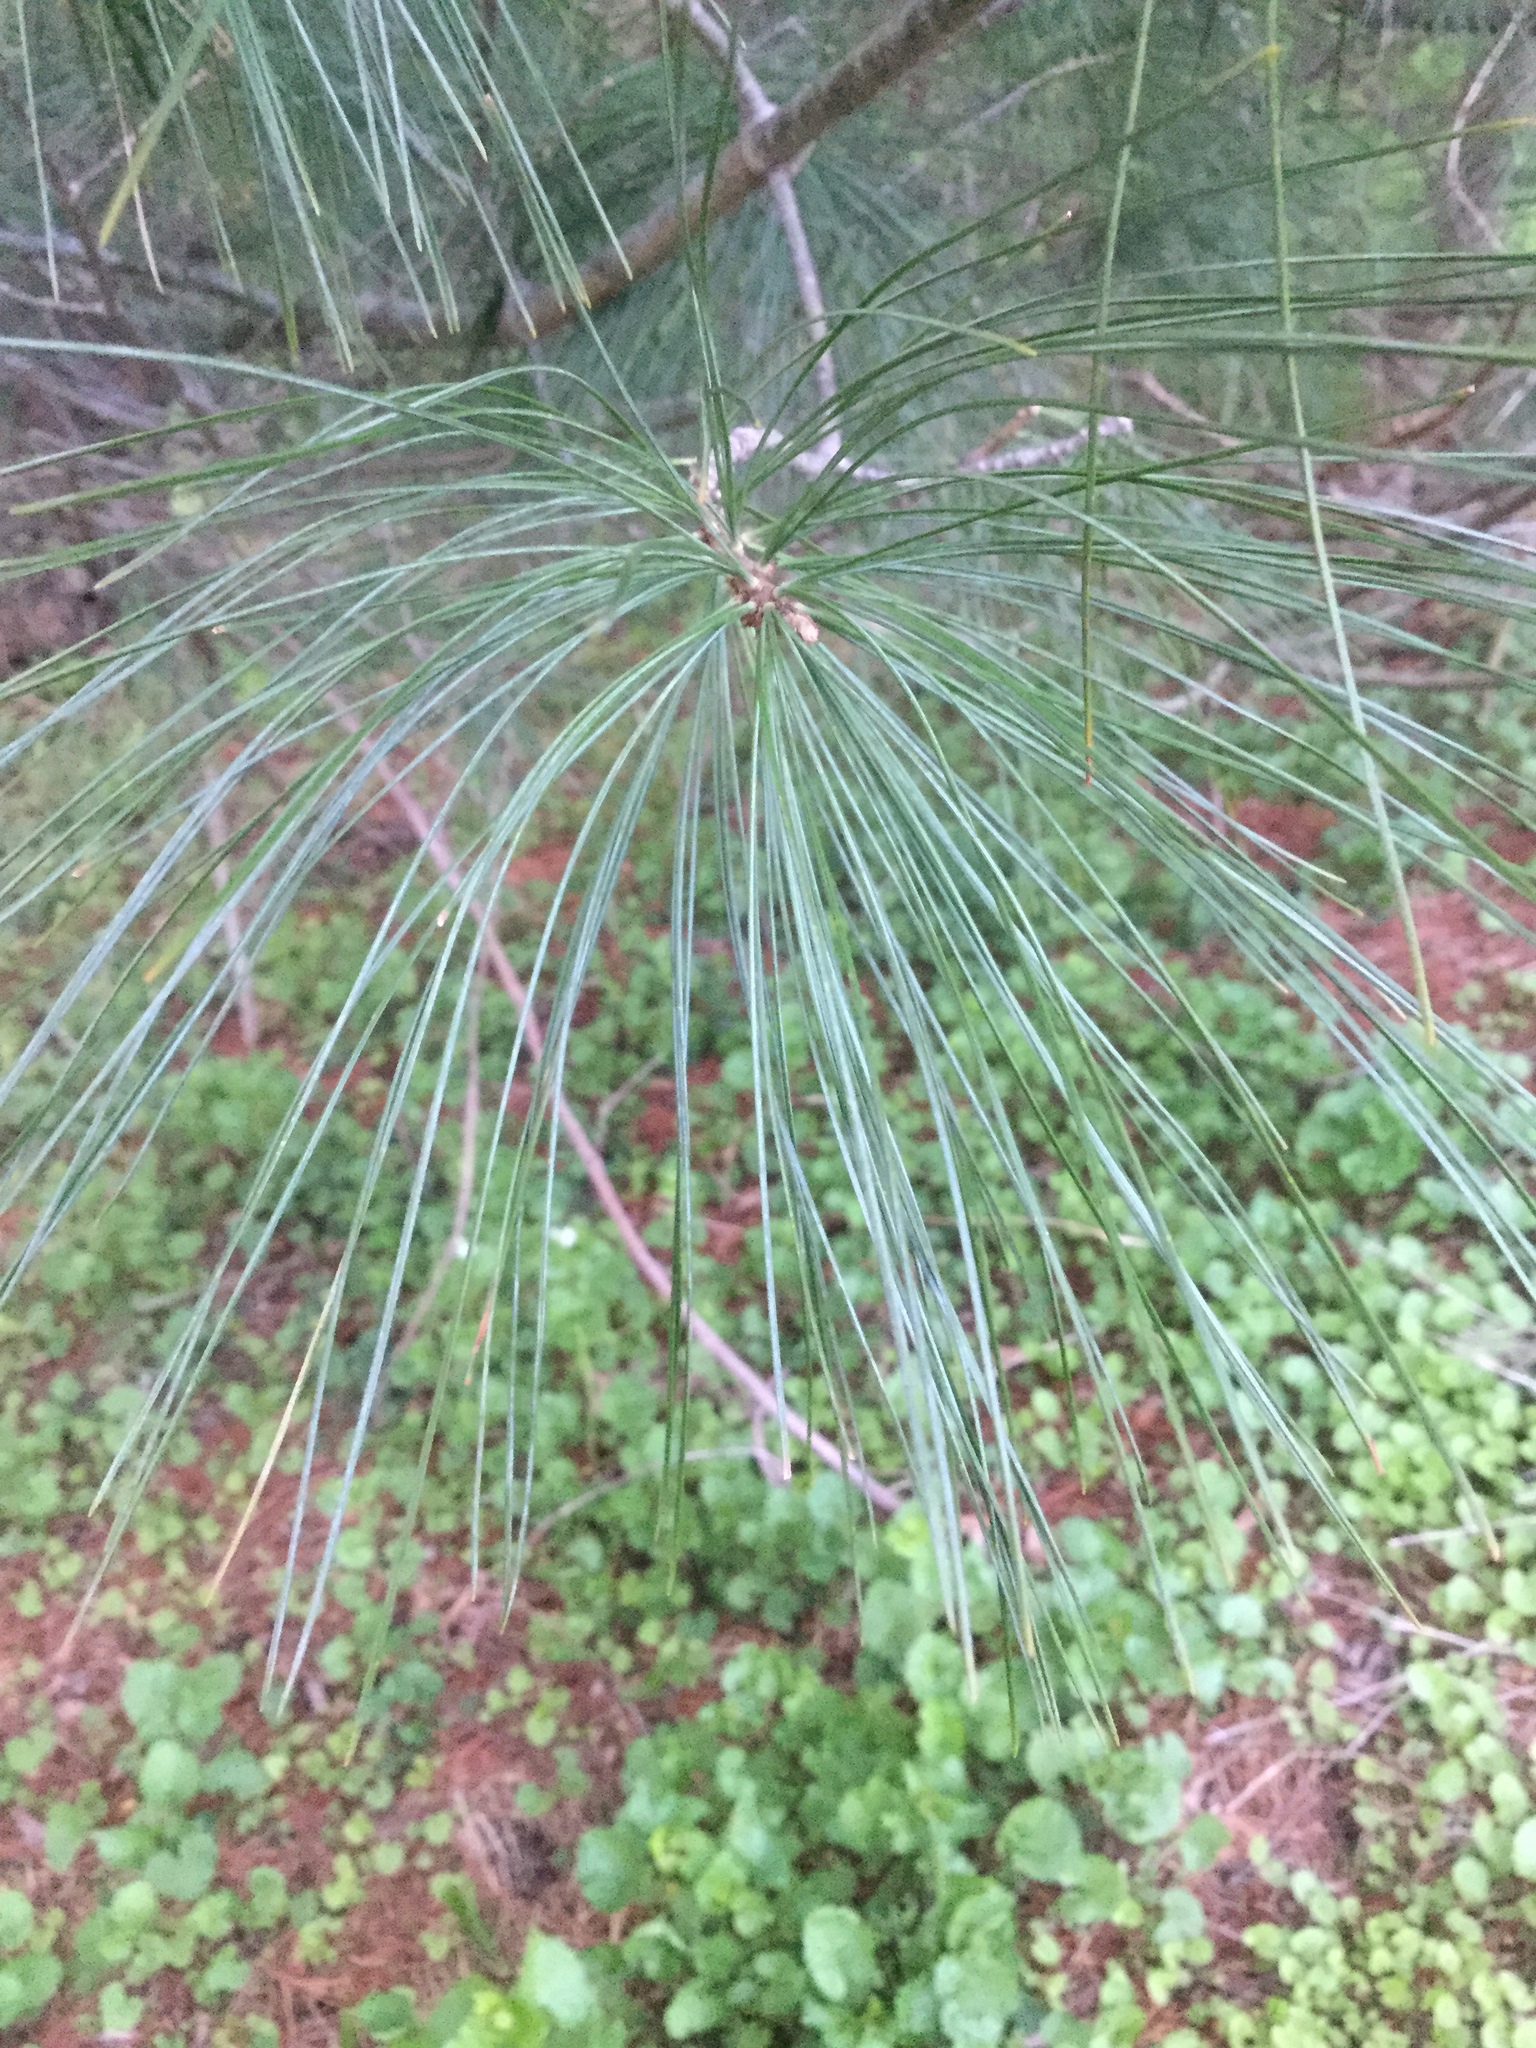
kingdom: Plantae
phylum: Tracheophyta
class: Pinopsida
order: Pinales
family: Pinaceae
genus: Pinus
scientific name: Pinus strobus
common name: Weymouth pine
